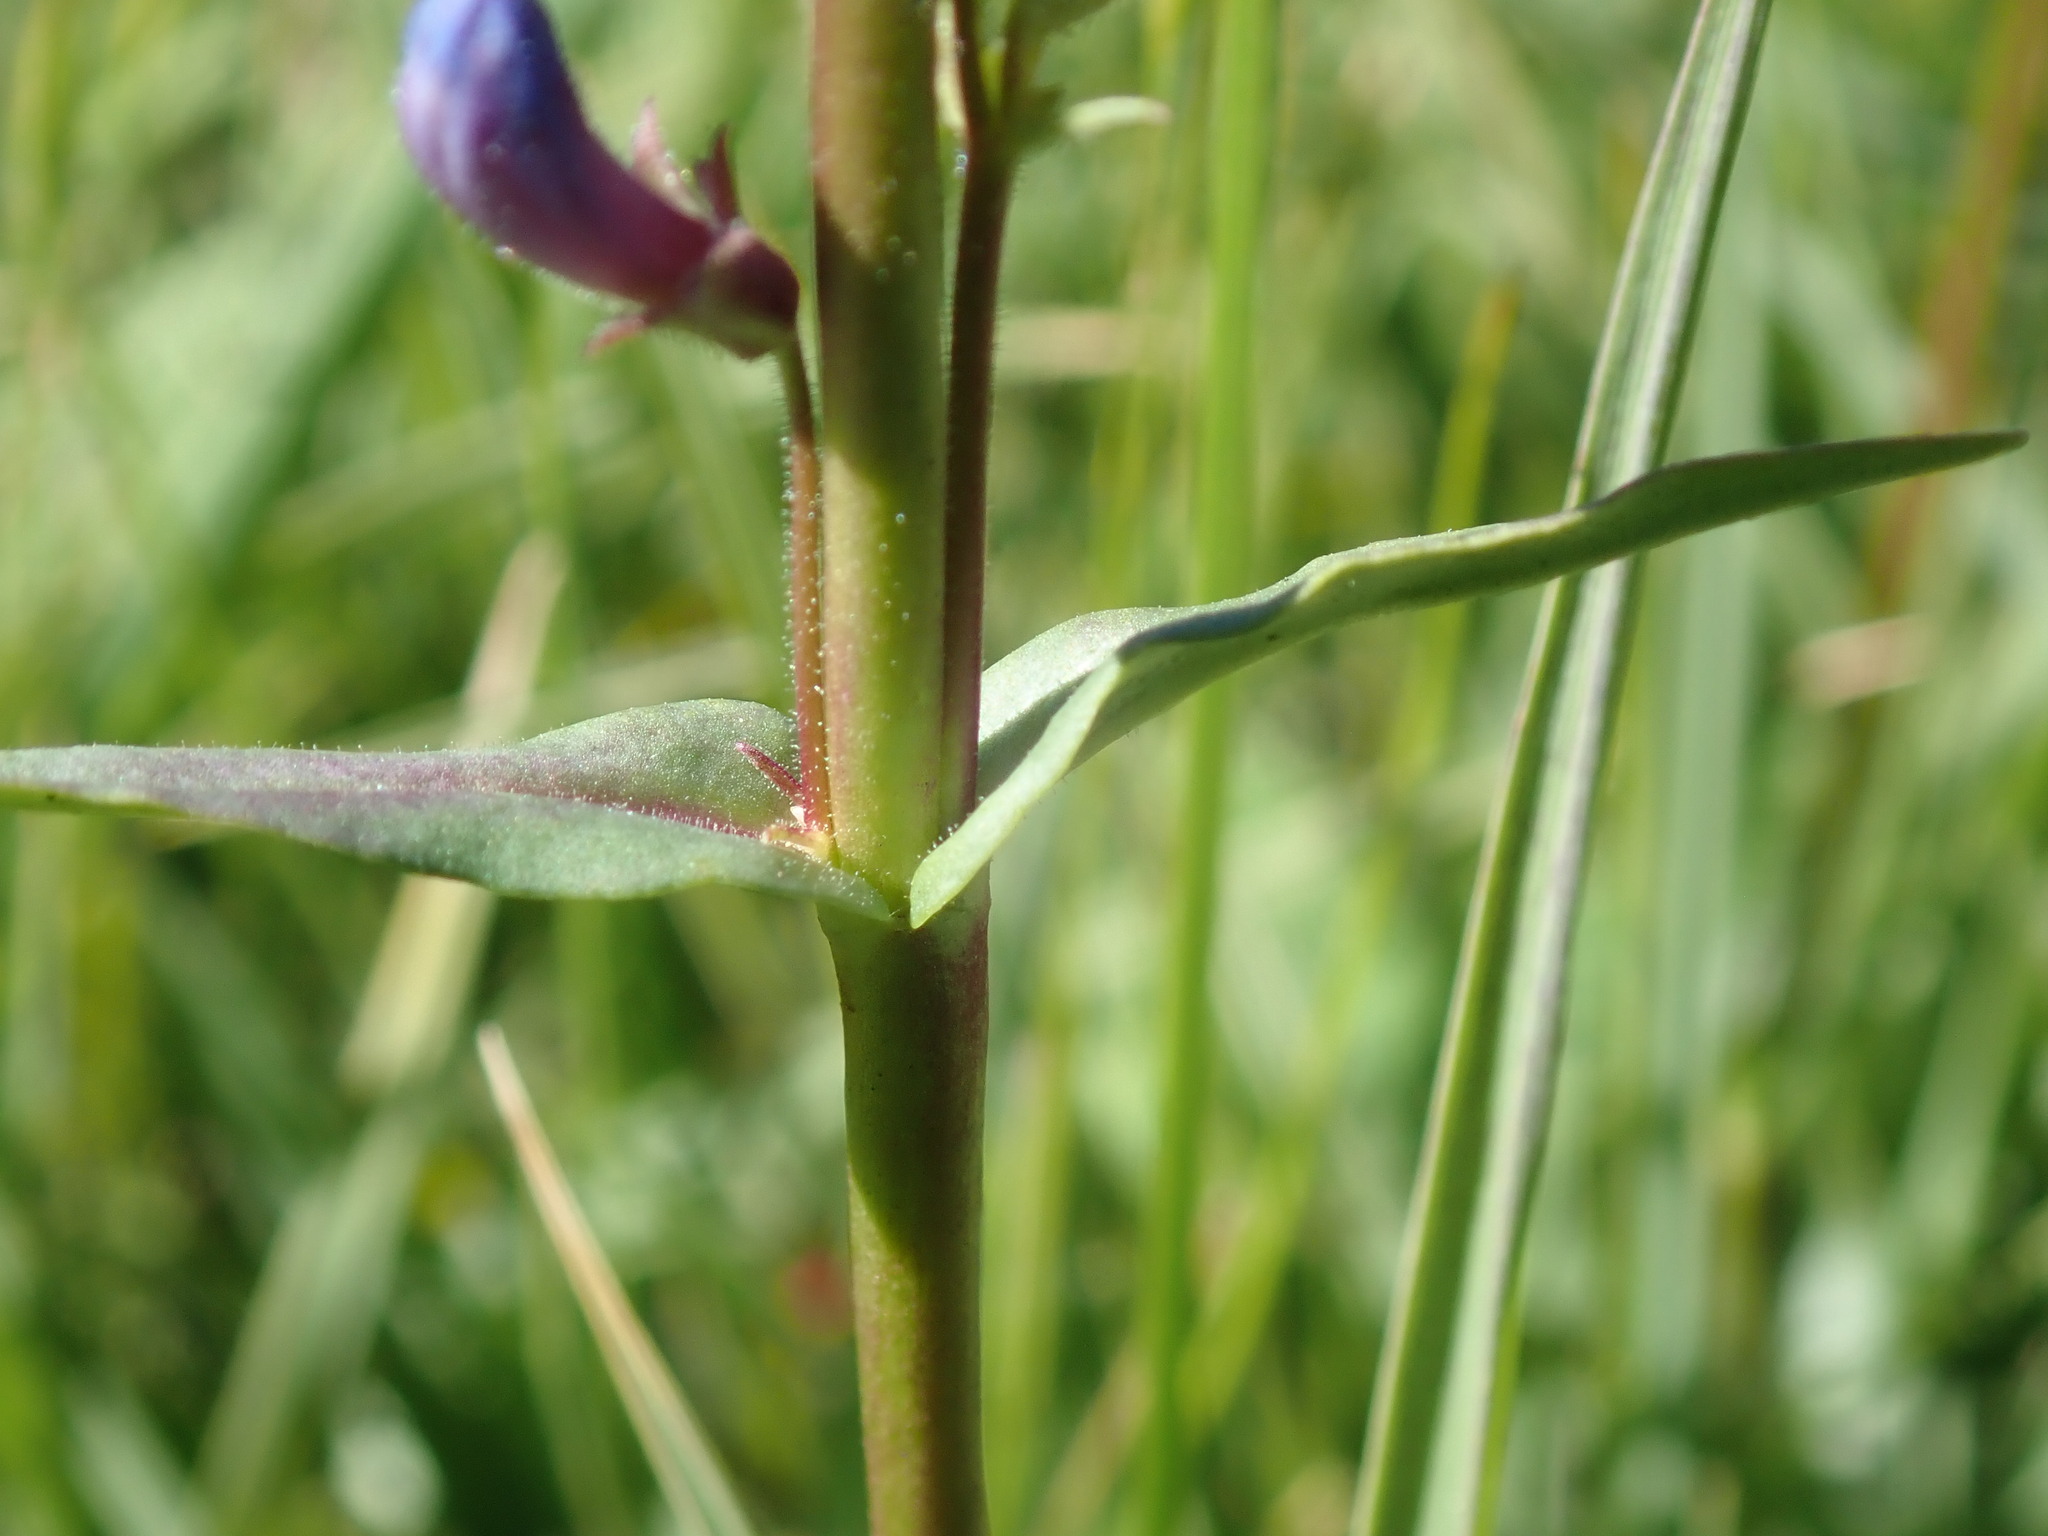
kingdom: Plantae
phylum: Tracheophyta
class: Magnoliopsida
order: Lamiales
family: Plantaginaceae
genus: Penstemon
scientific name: Penstemon rydbergii
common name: Rydberg's beardtongue
